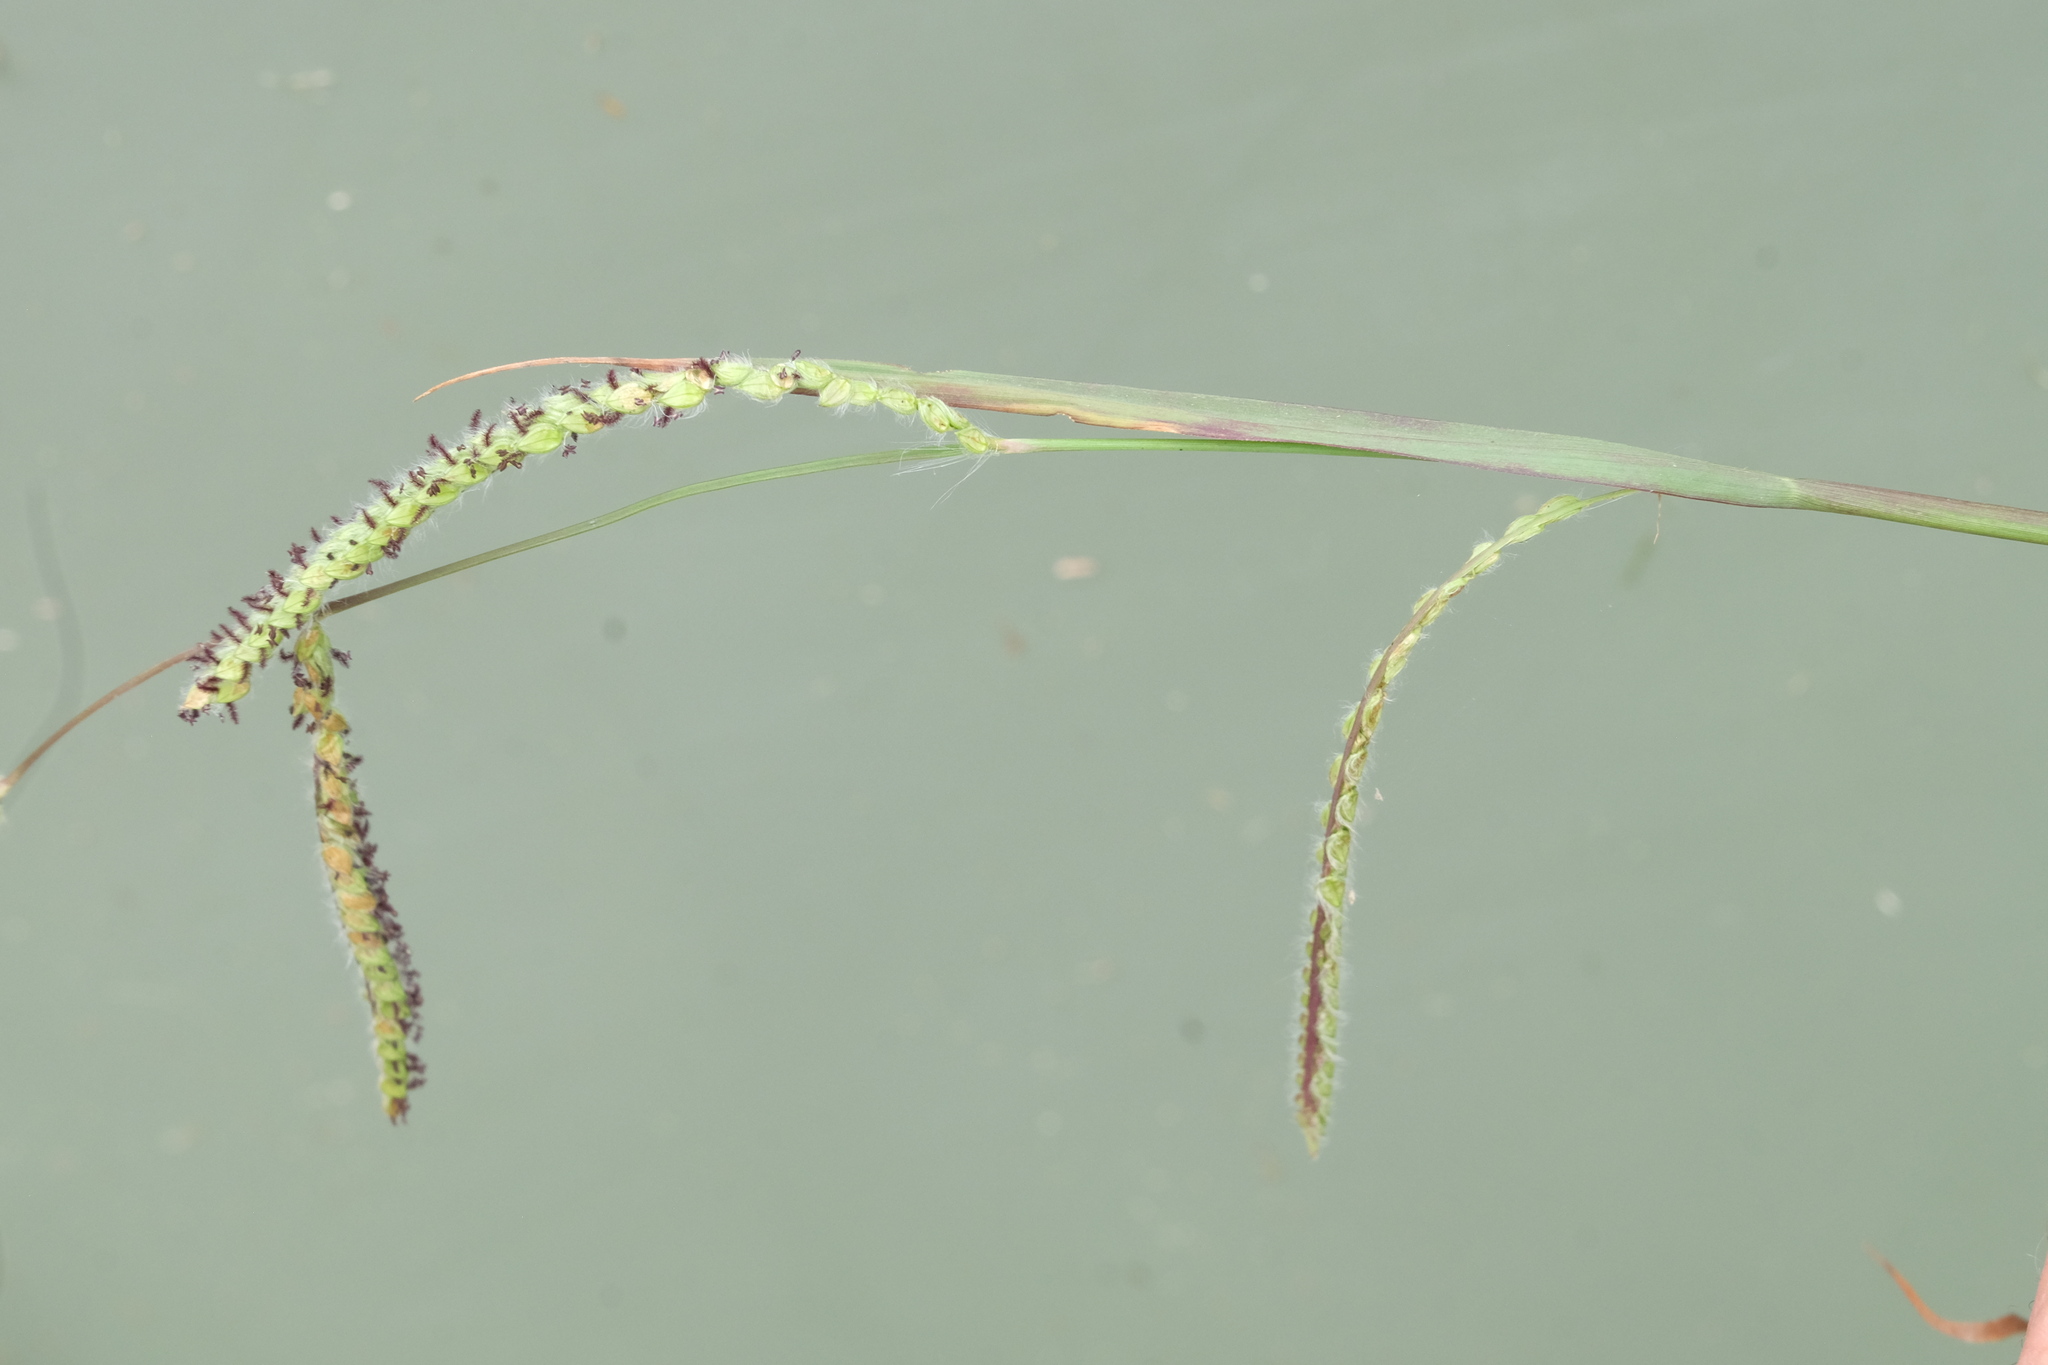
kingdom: Plantae
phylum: Tracheophyta
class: Liliopsida
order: Poales
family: Poaceae
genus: Paspalum
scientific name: Paspalum dilatatum
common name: Dallisgrass
